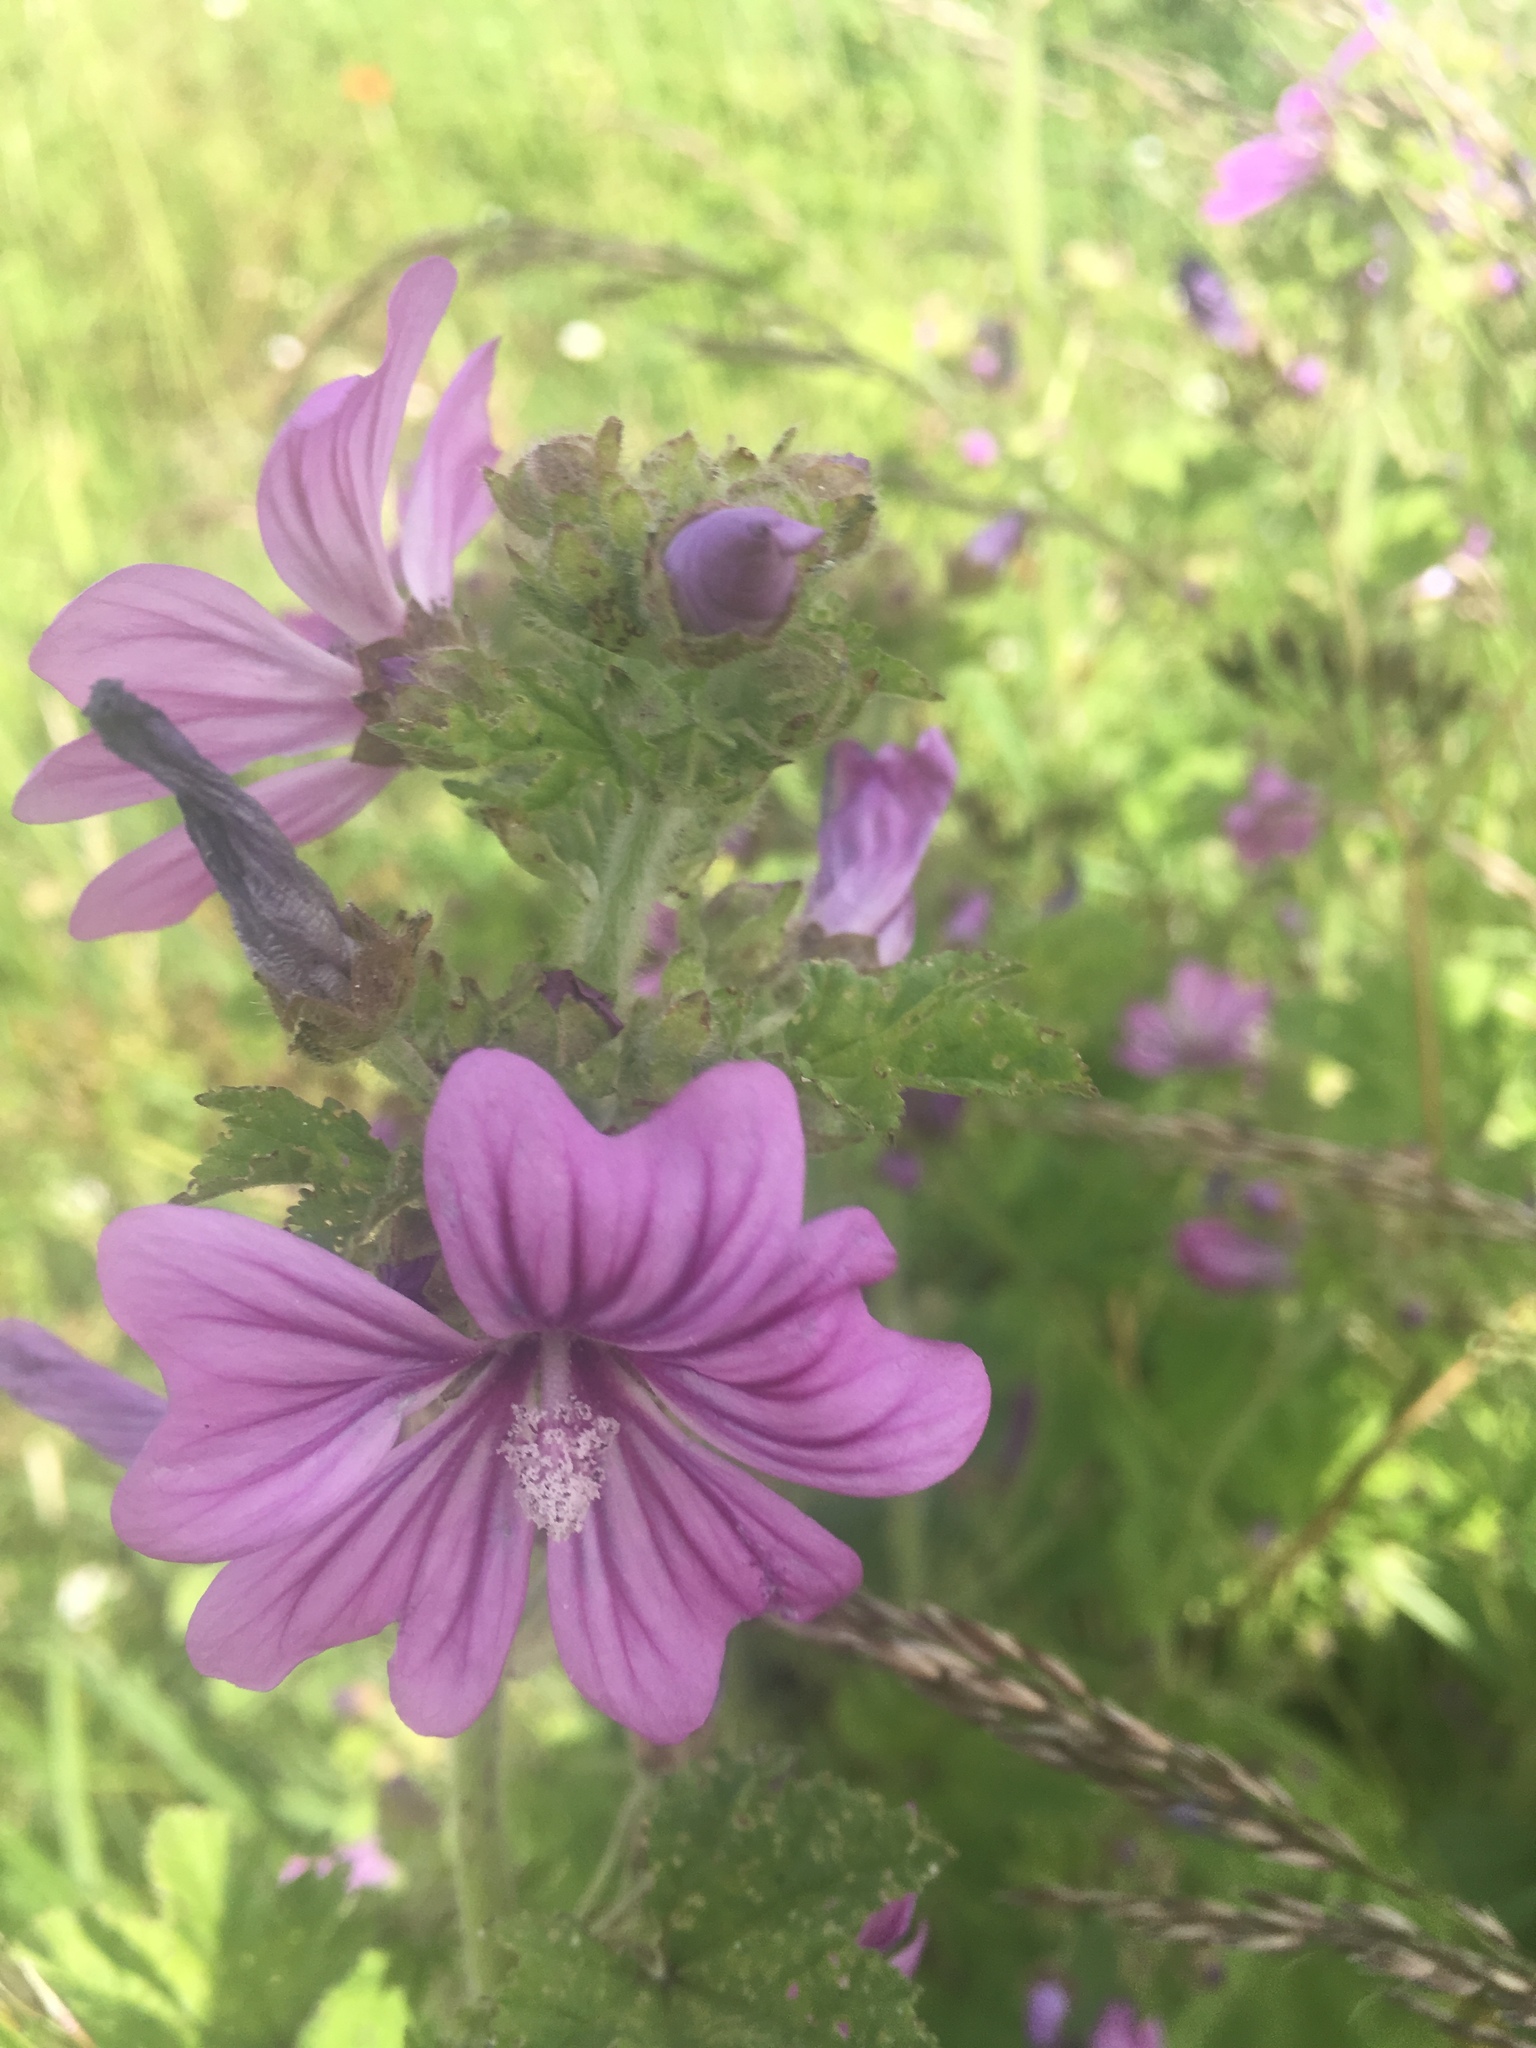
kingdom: Plantae
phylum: Tracheophyta
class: Magnoliopsida
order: Malvales
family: Malvaceae
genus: Malva
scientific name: Malva sylvestris
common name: Common mallow
